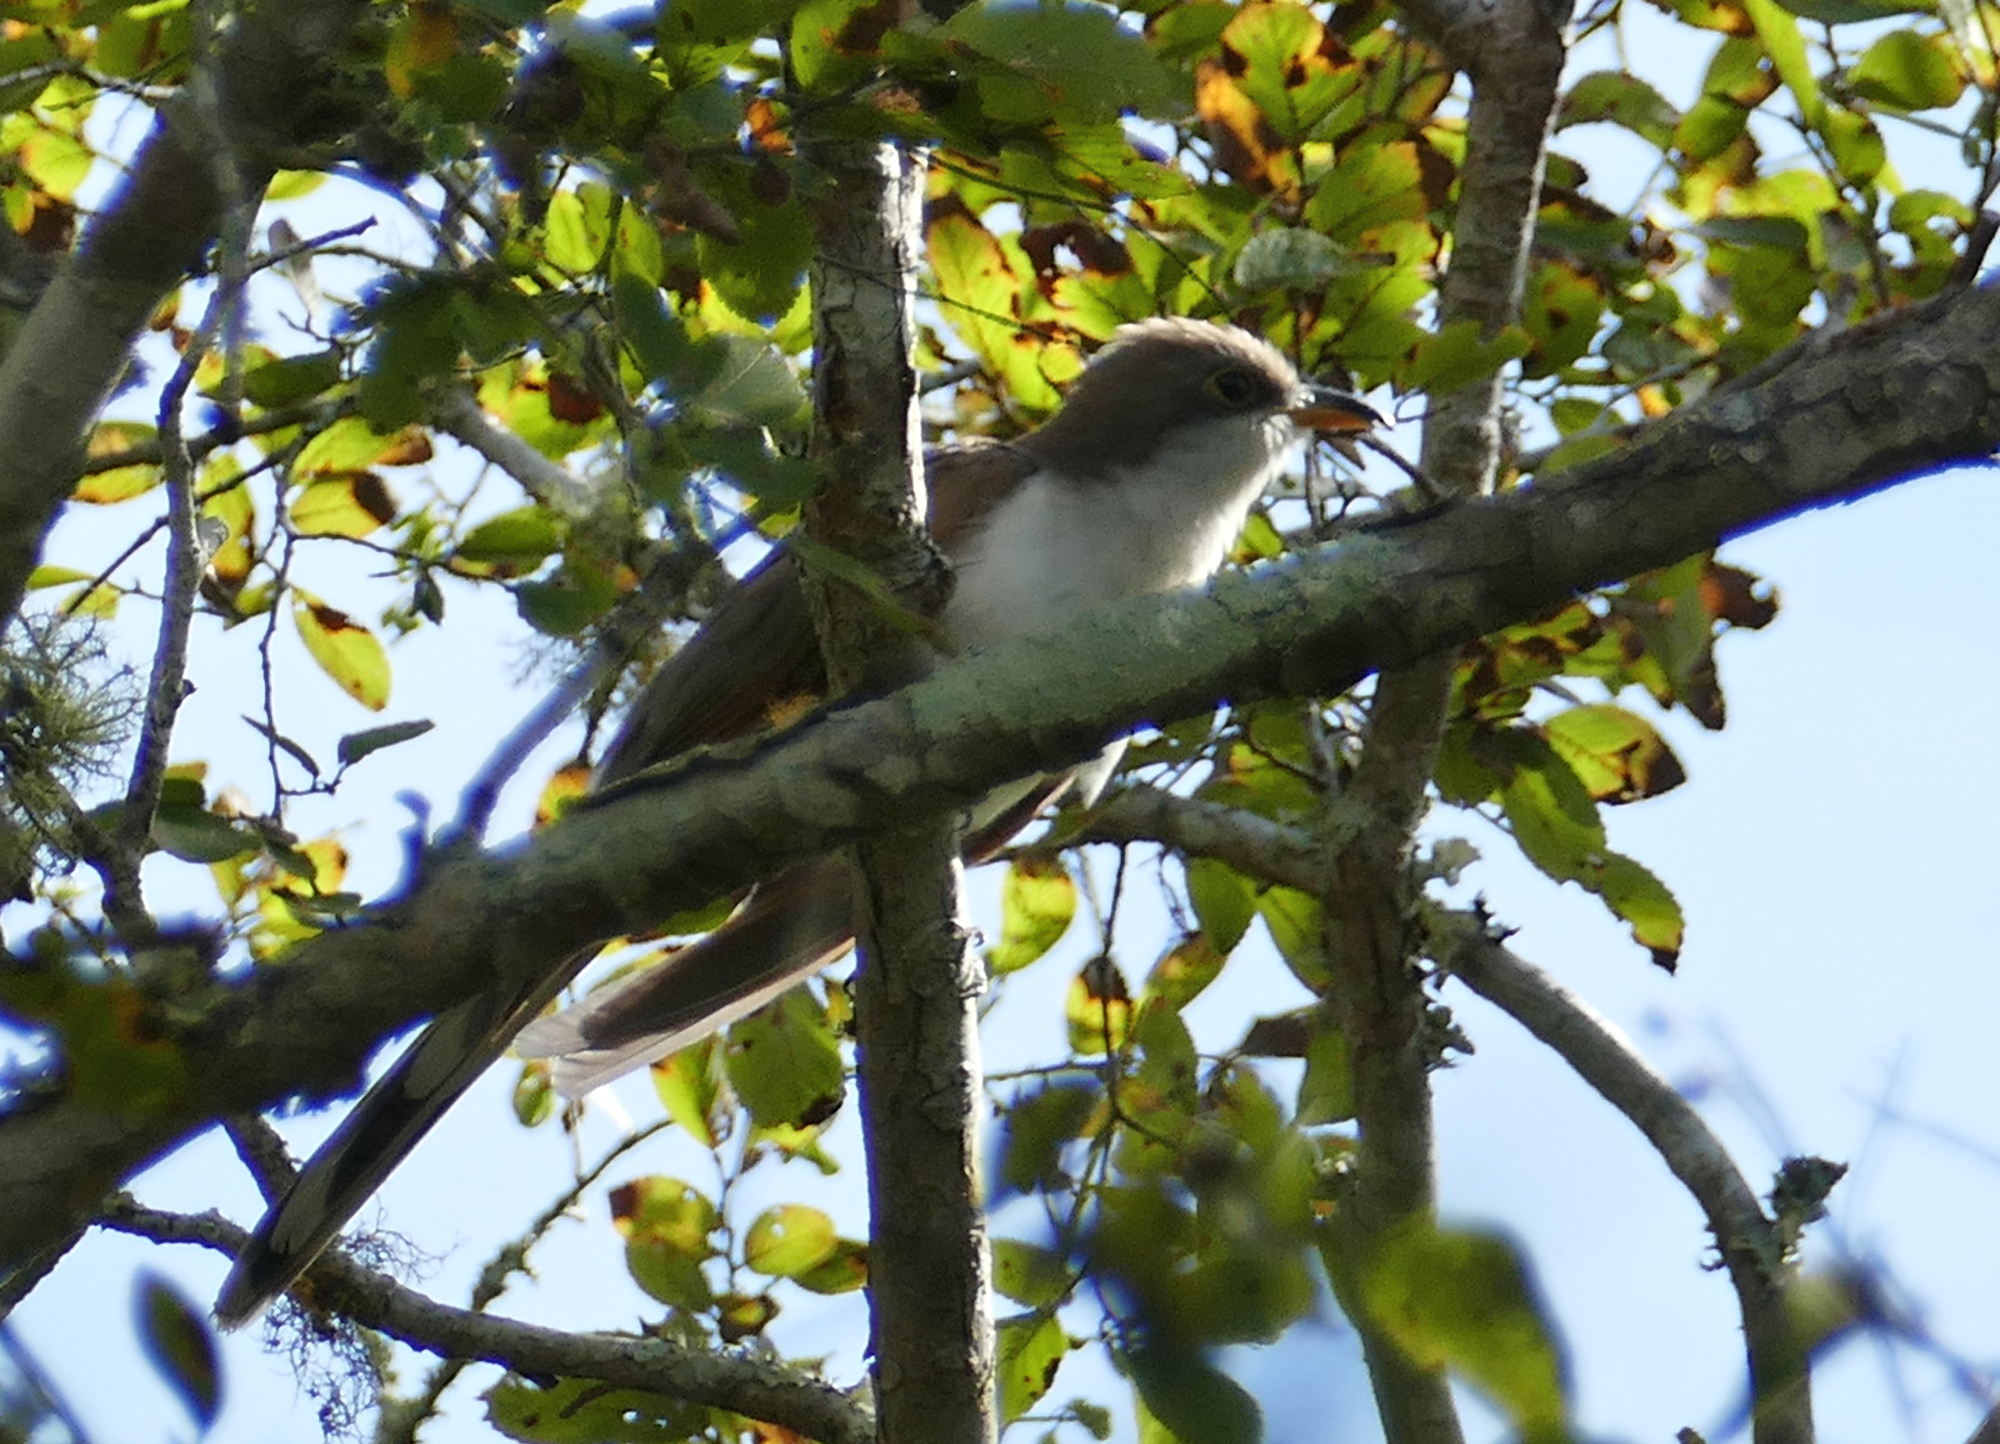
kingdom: Animalia
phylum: Chordata
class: Aves
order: Cuculiformes
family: Cuculidae
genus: Coccyzus
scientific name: Coccyzus americanus
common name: Yellow-billed cuckoo
